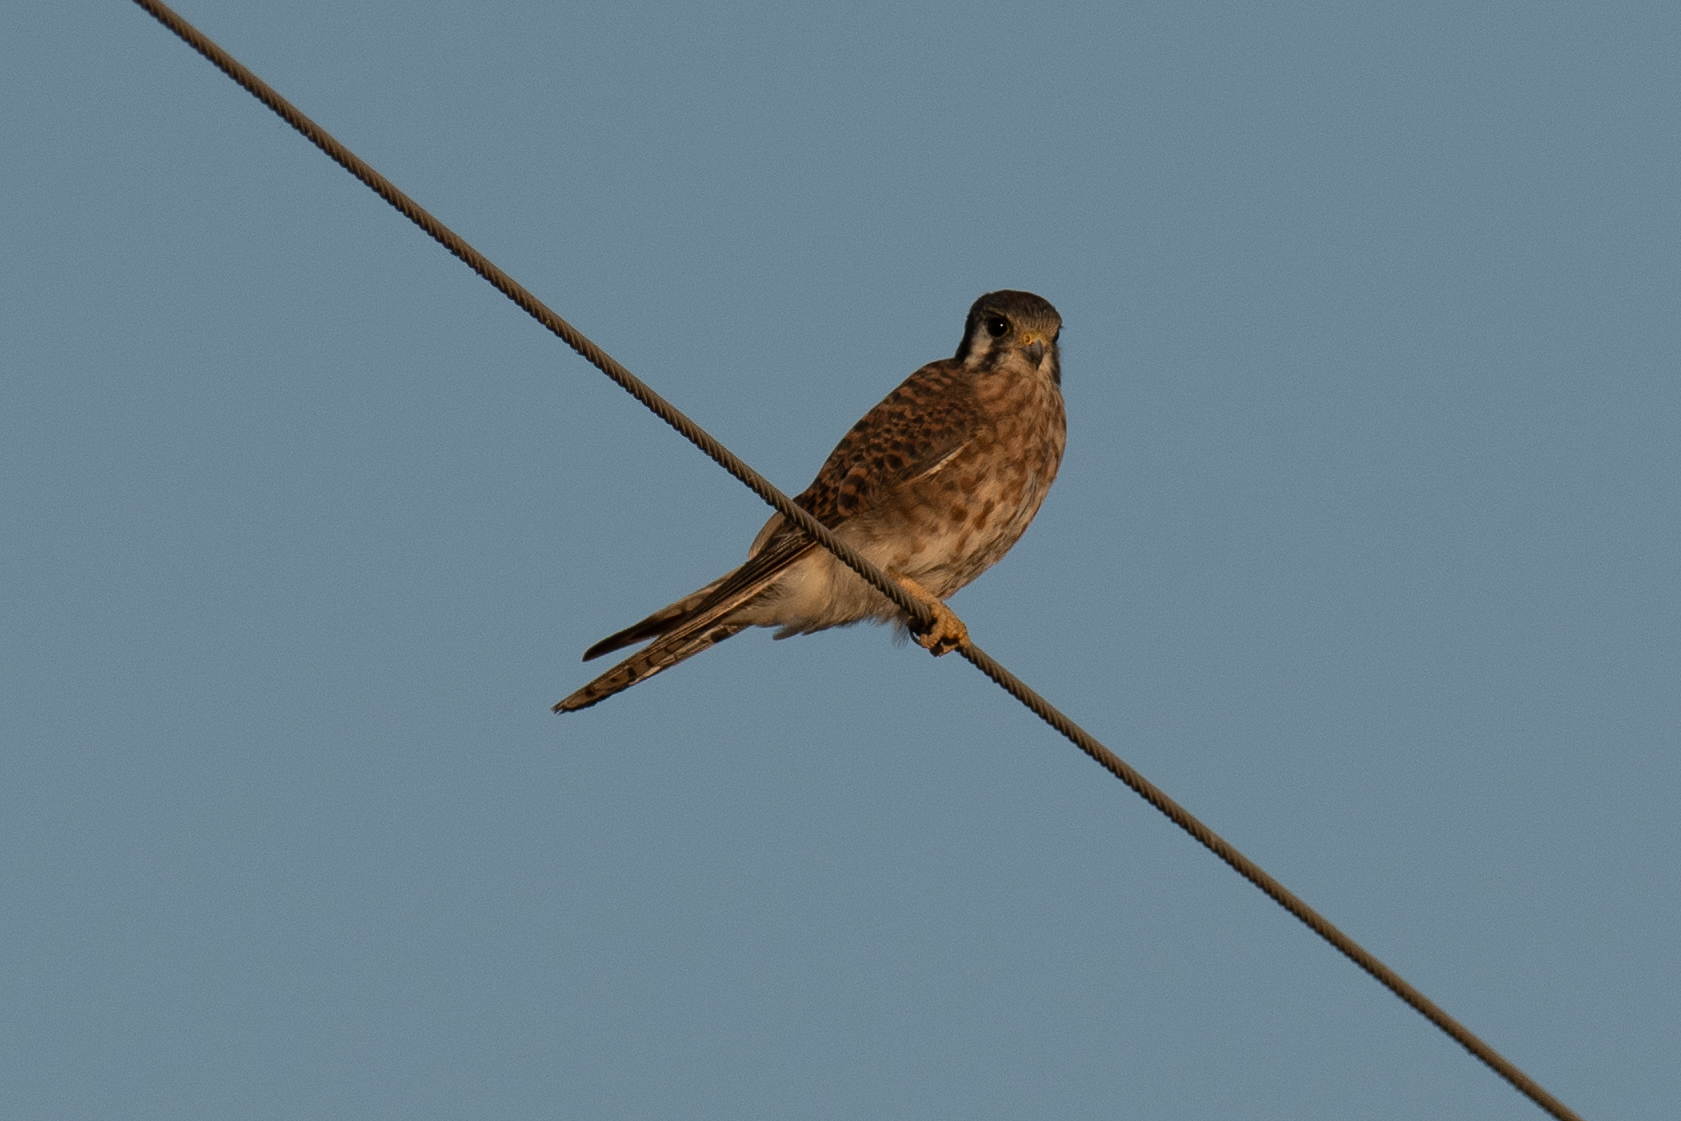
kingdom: Animalia
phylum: Chordata
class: Aves
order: Falconiformes
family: Falconidae
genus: Falco
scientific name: Falco sparverius
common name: American kestrel
